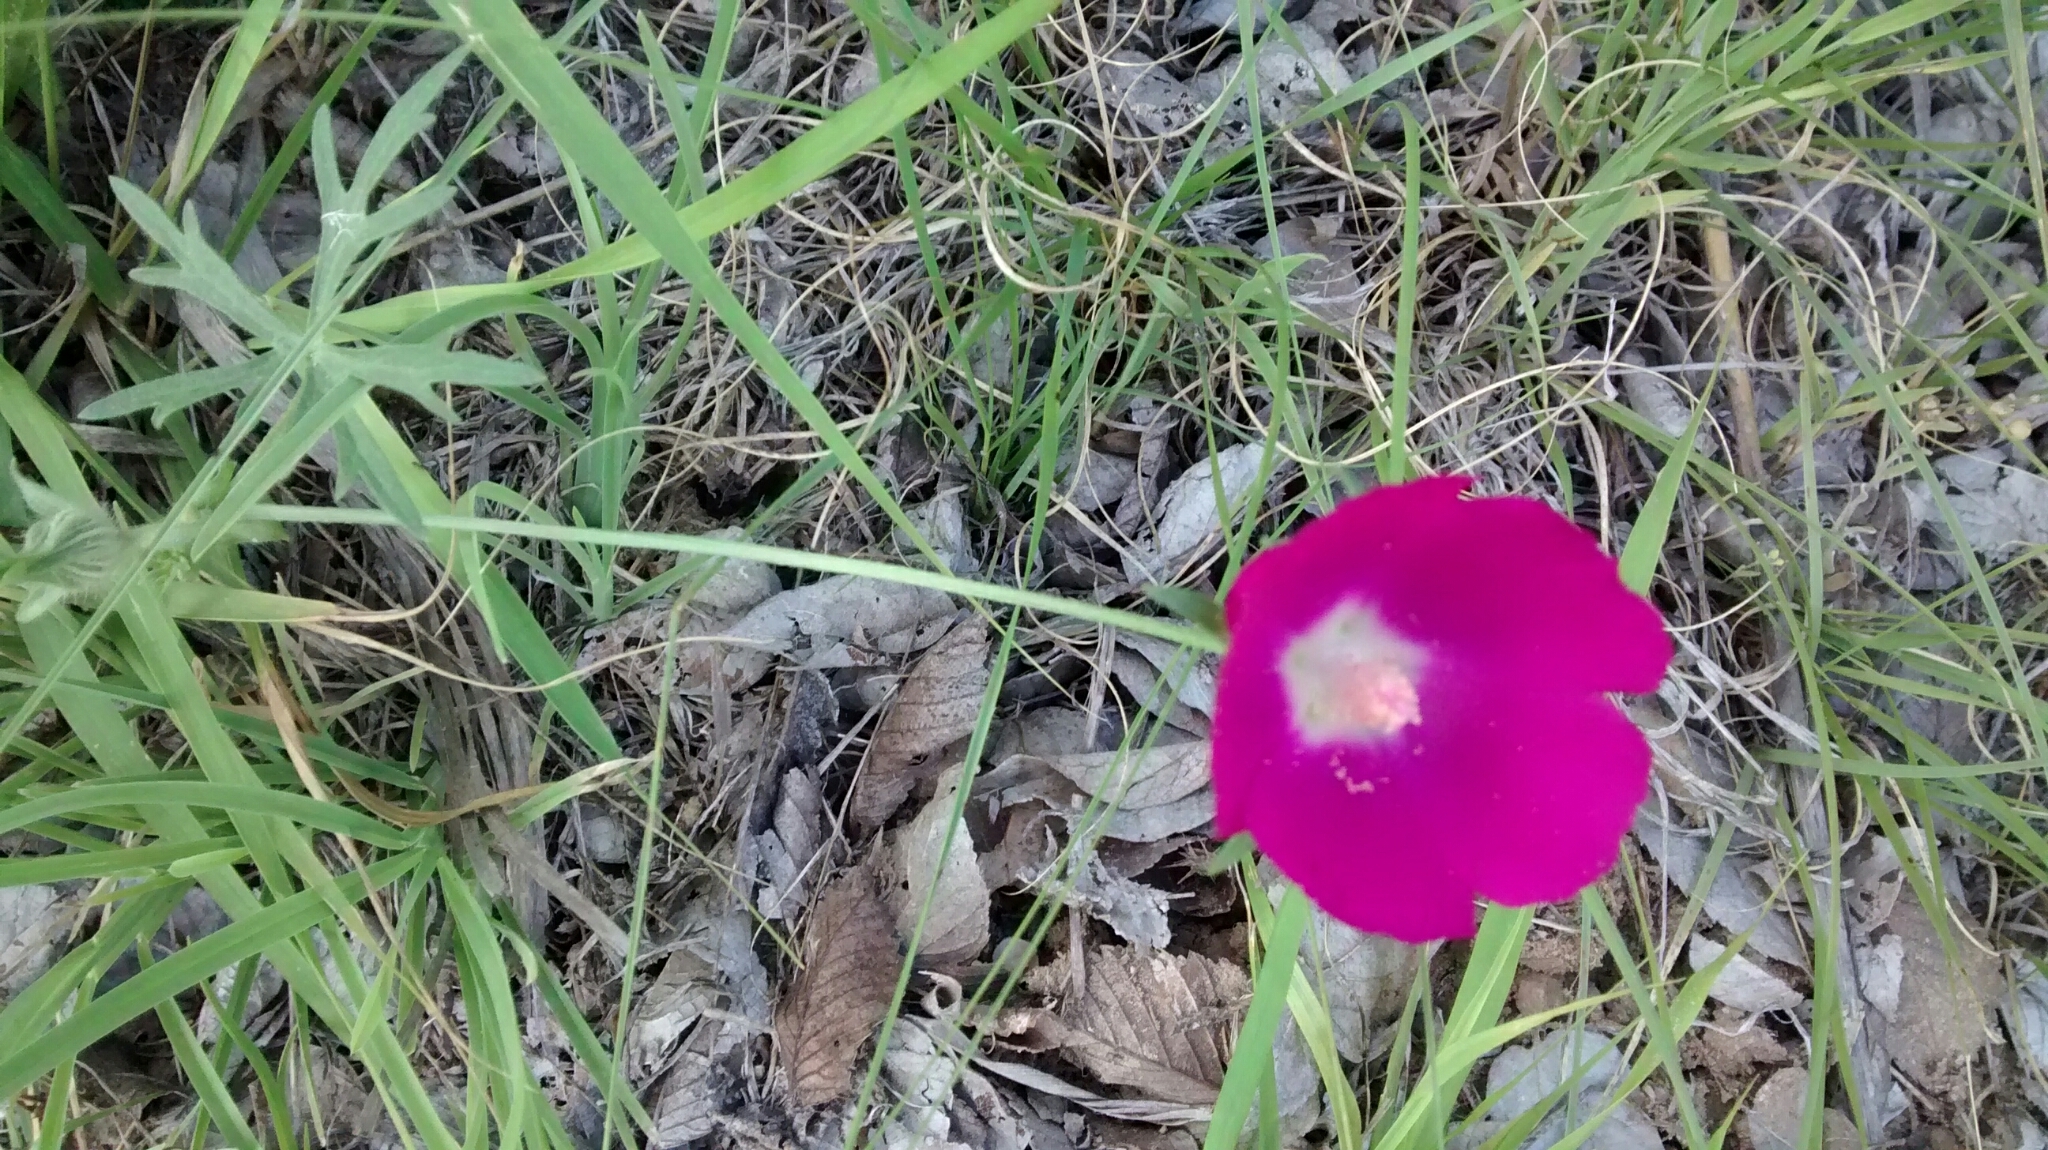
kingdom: Plantae
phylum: Tracheophyta
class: Magnoliopsida
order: Malvales
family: Malvaceae
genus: Callirhoe
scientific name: Callirhoe involucrata
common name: Purple poppy-mallow
